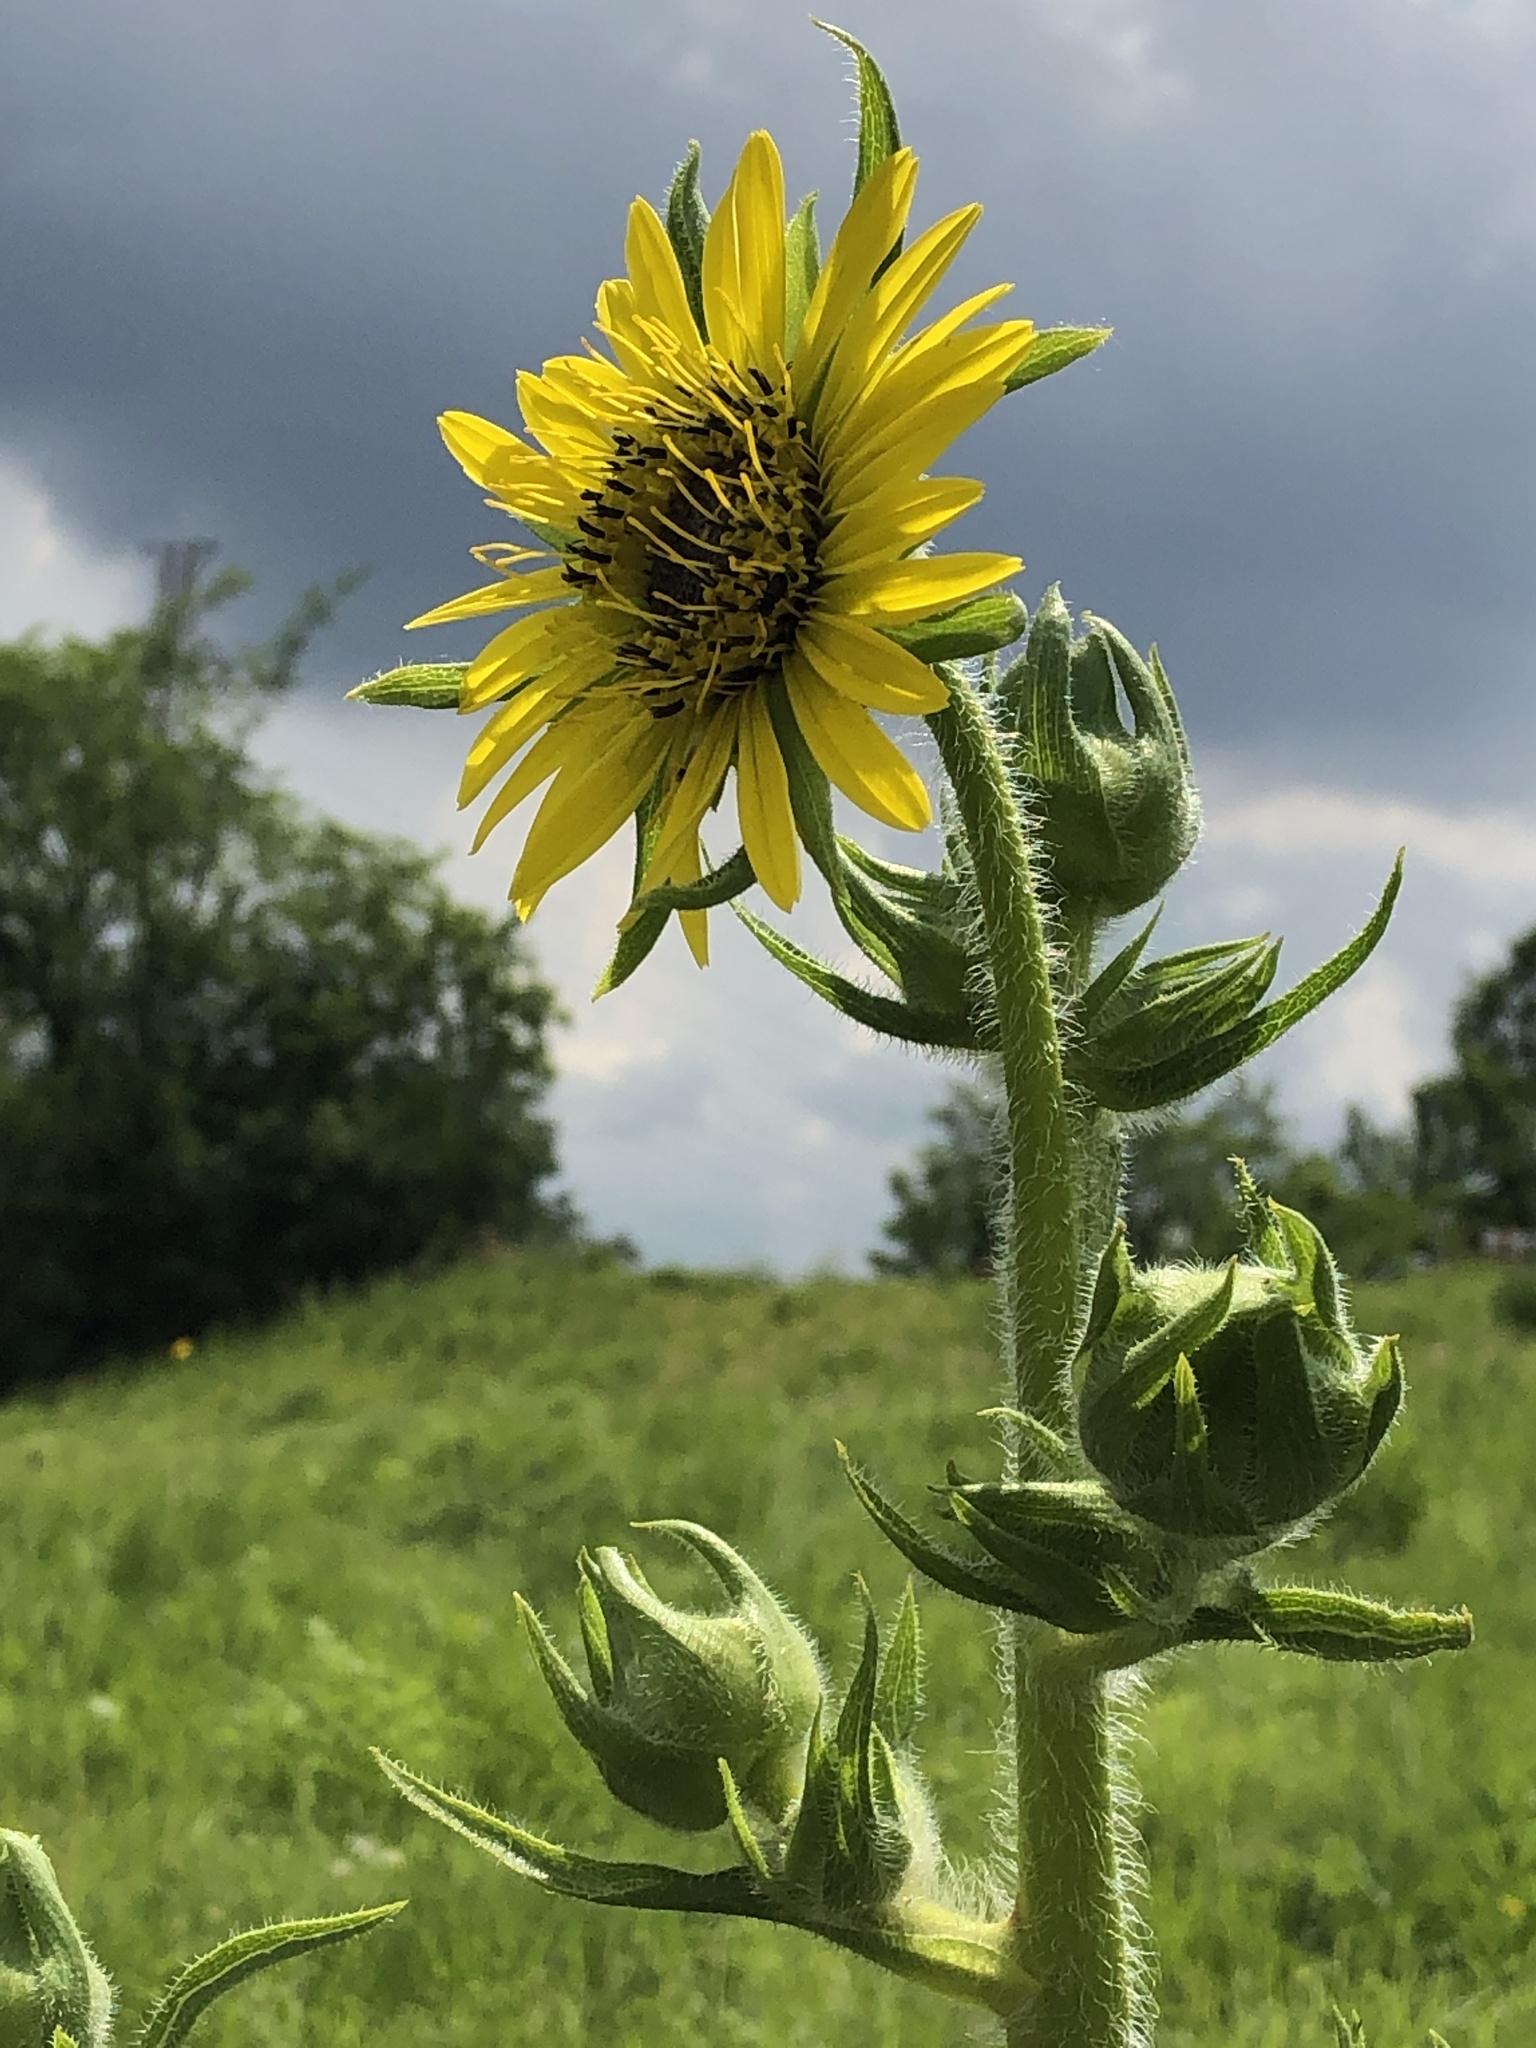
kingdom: Plantae
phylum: Tracheophyta
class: Magnoliopsida
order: Asterales
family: Asteraceae
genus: Silphium
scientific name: Silphium laciniatum
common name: Polarplant
